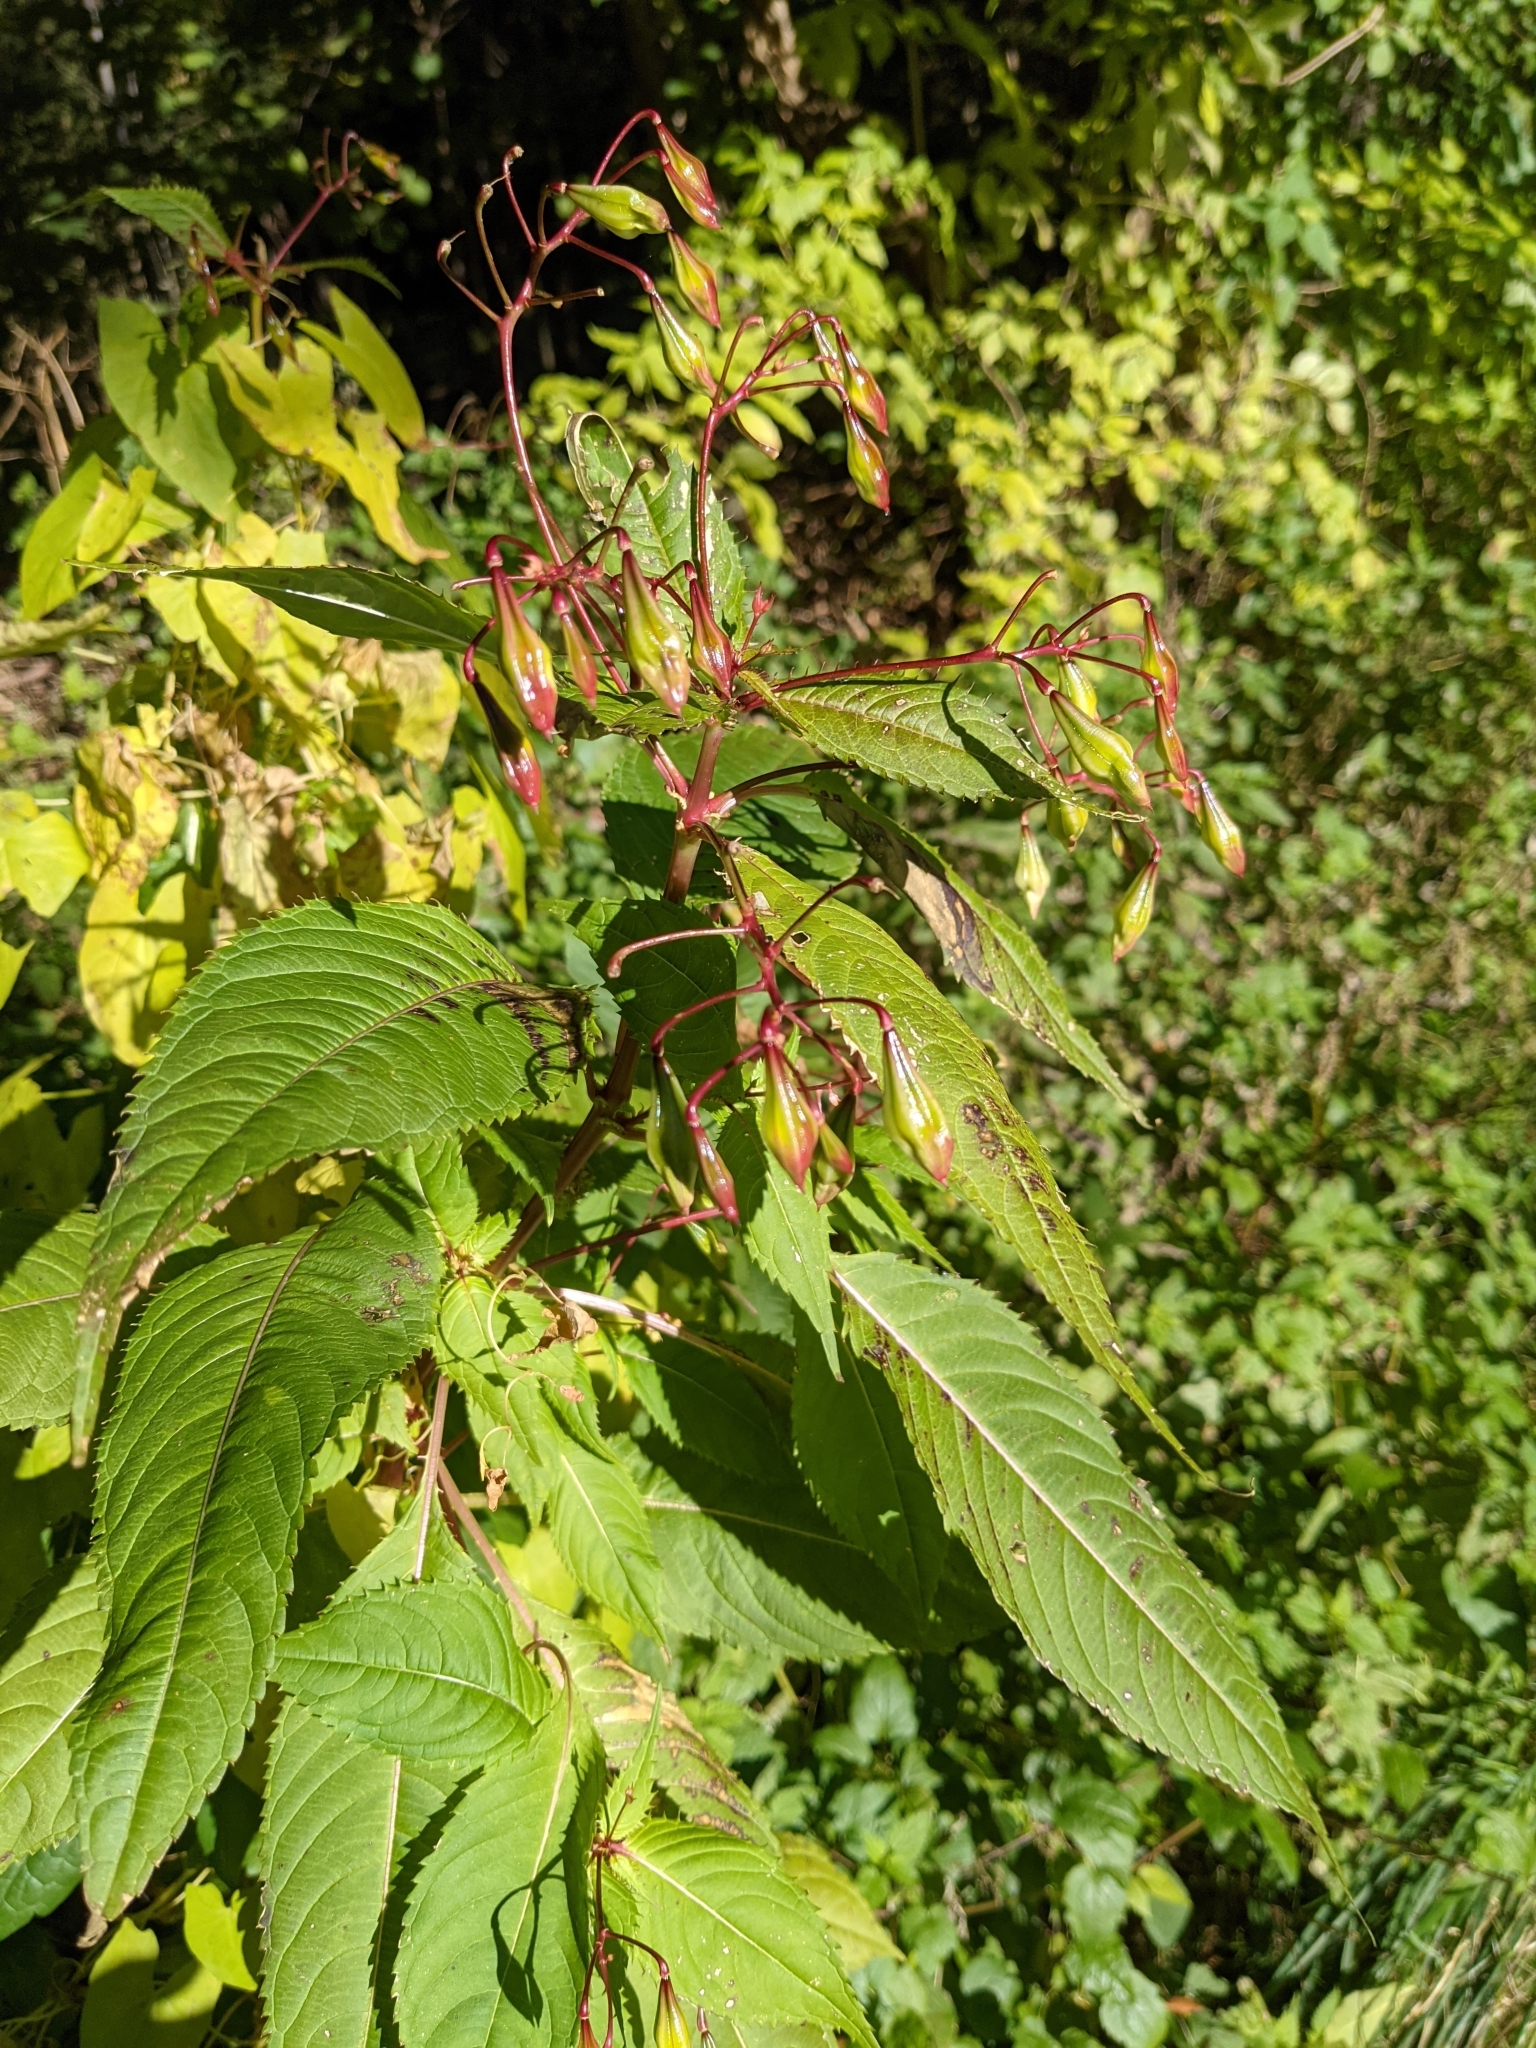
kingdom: Plantae
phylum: Tracheophyta
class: Magnoliopsida
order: Ericales
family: Balsaminaceae
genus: Impatiens
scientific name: Impatiens glandulifera
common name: Himalayan balsam
